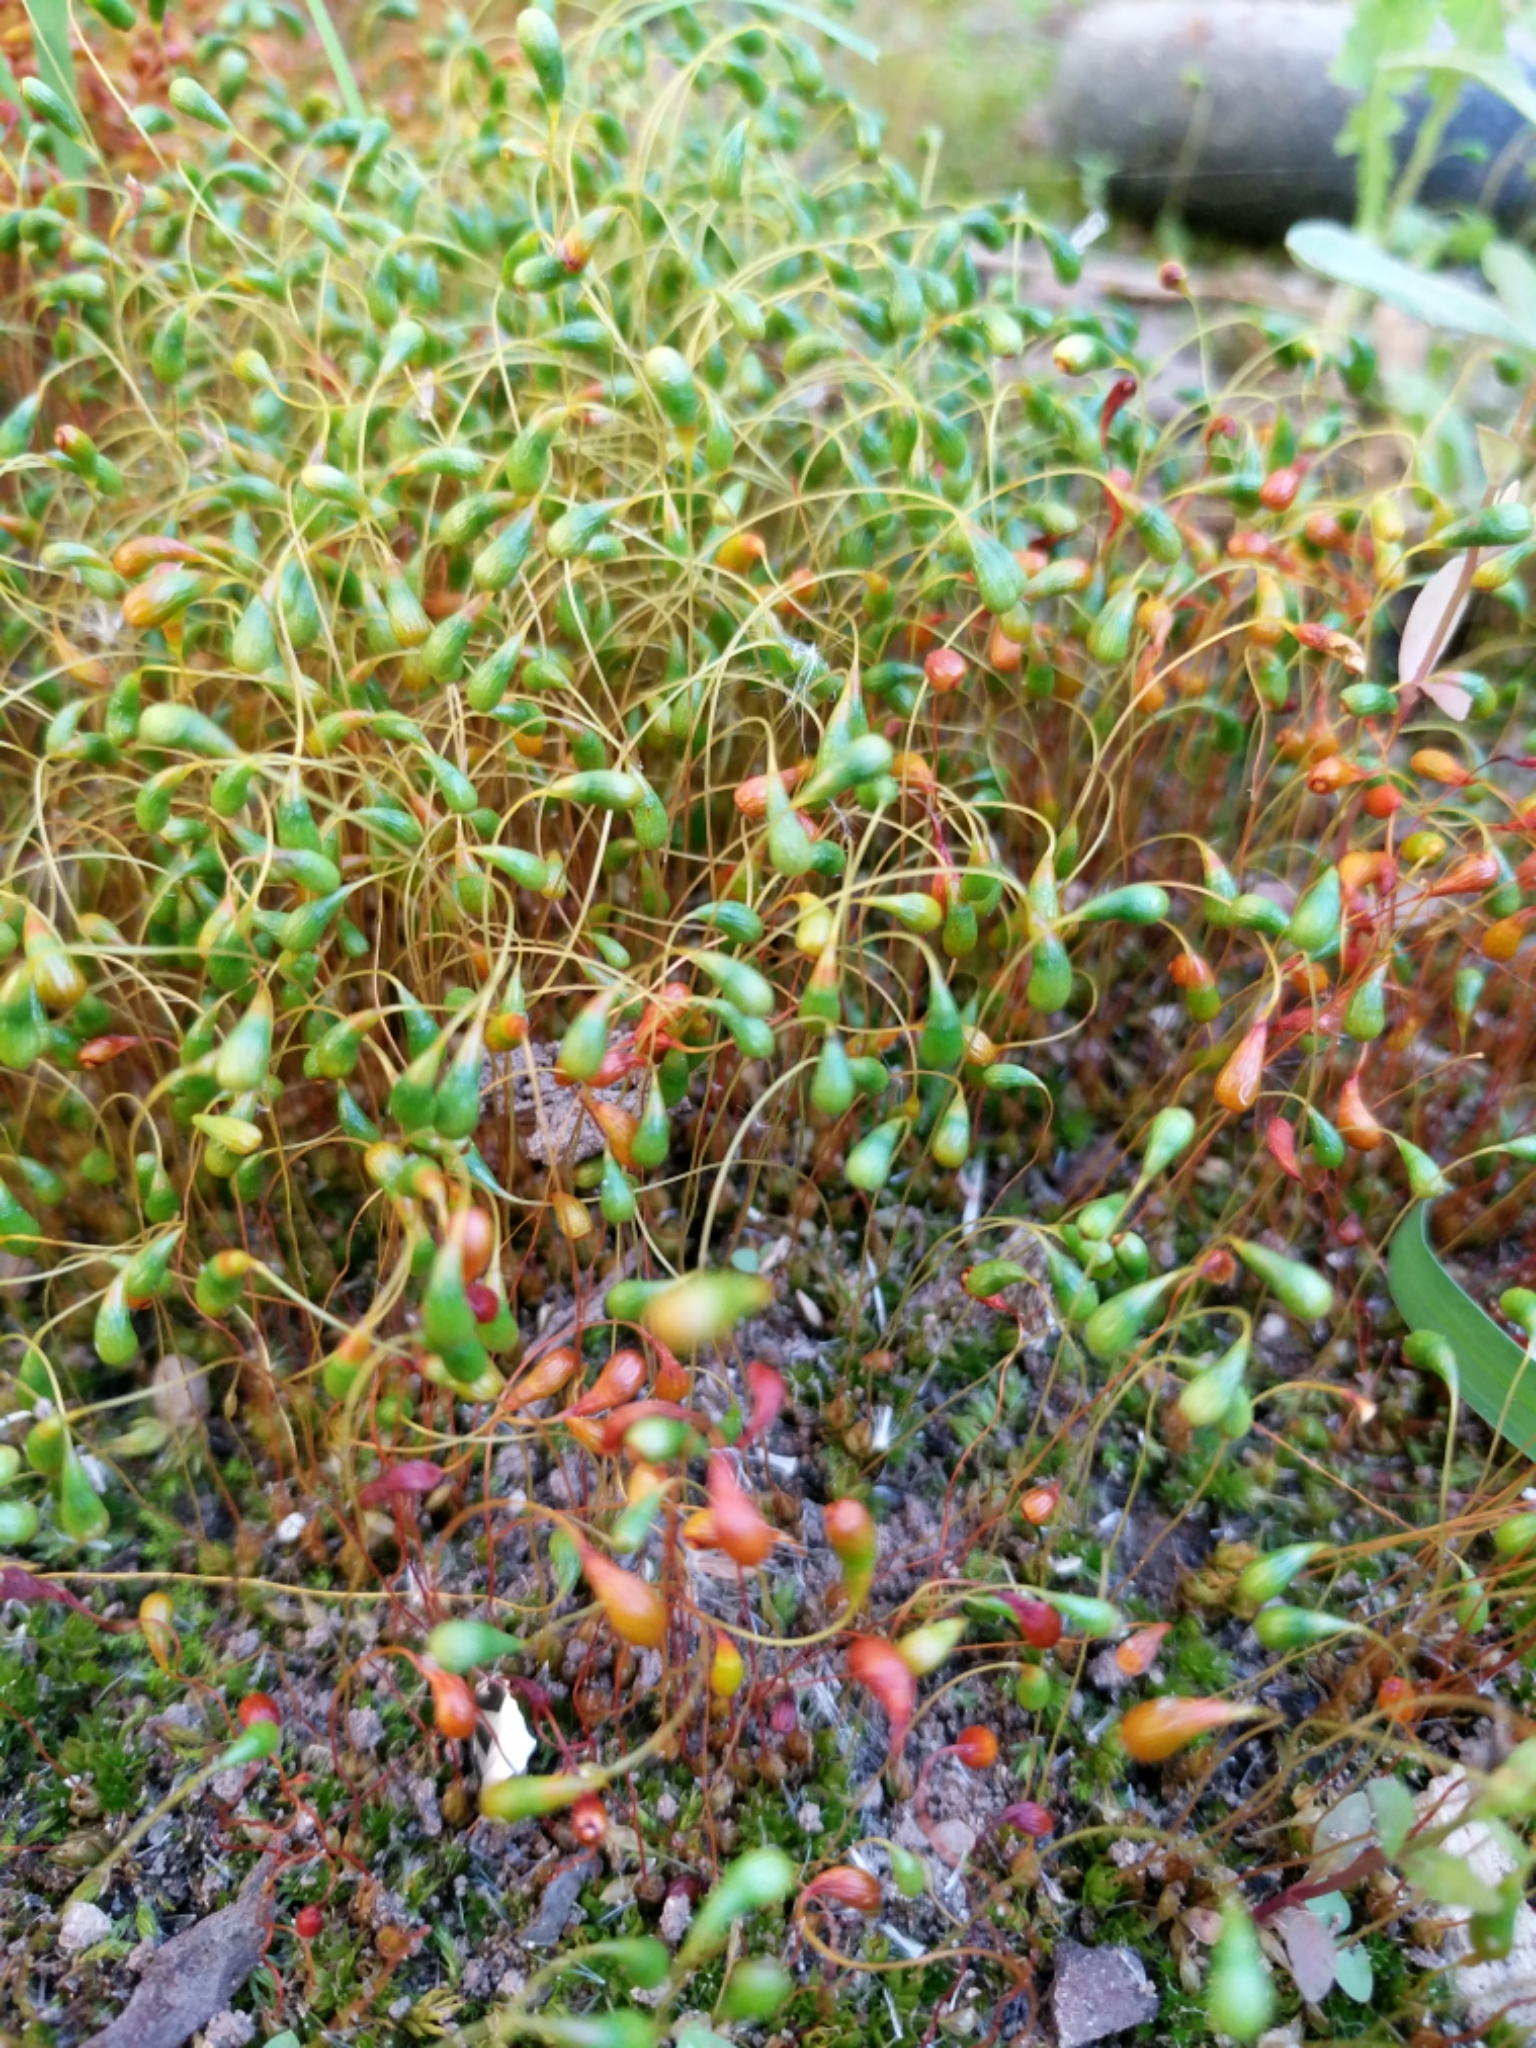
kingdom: Plantae
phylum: Bryophyta
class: Bryopsida
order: Funariales
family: Funariaceae
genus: Funaria
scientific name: Funaria hygrometrica
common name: Common cord moss
